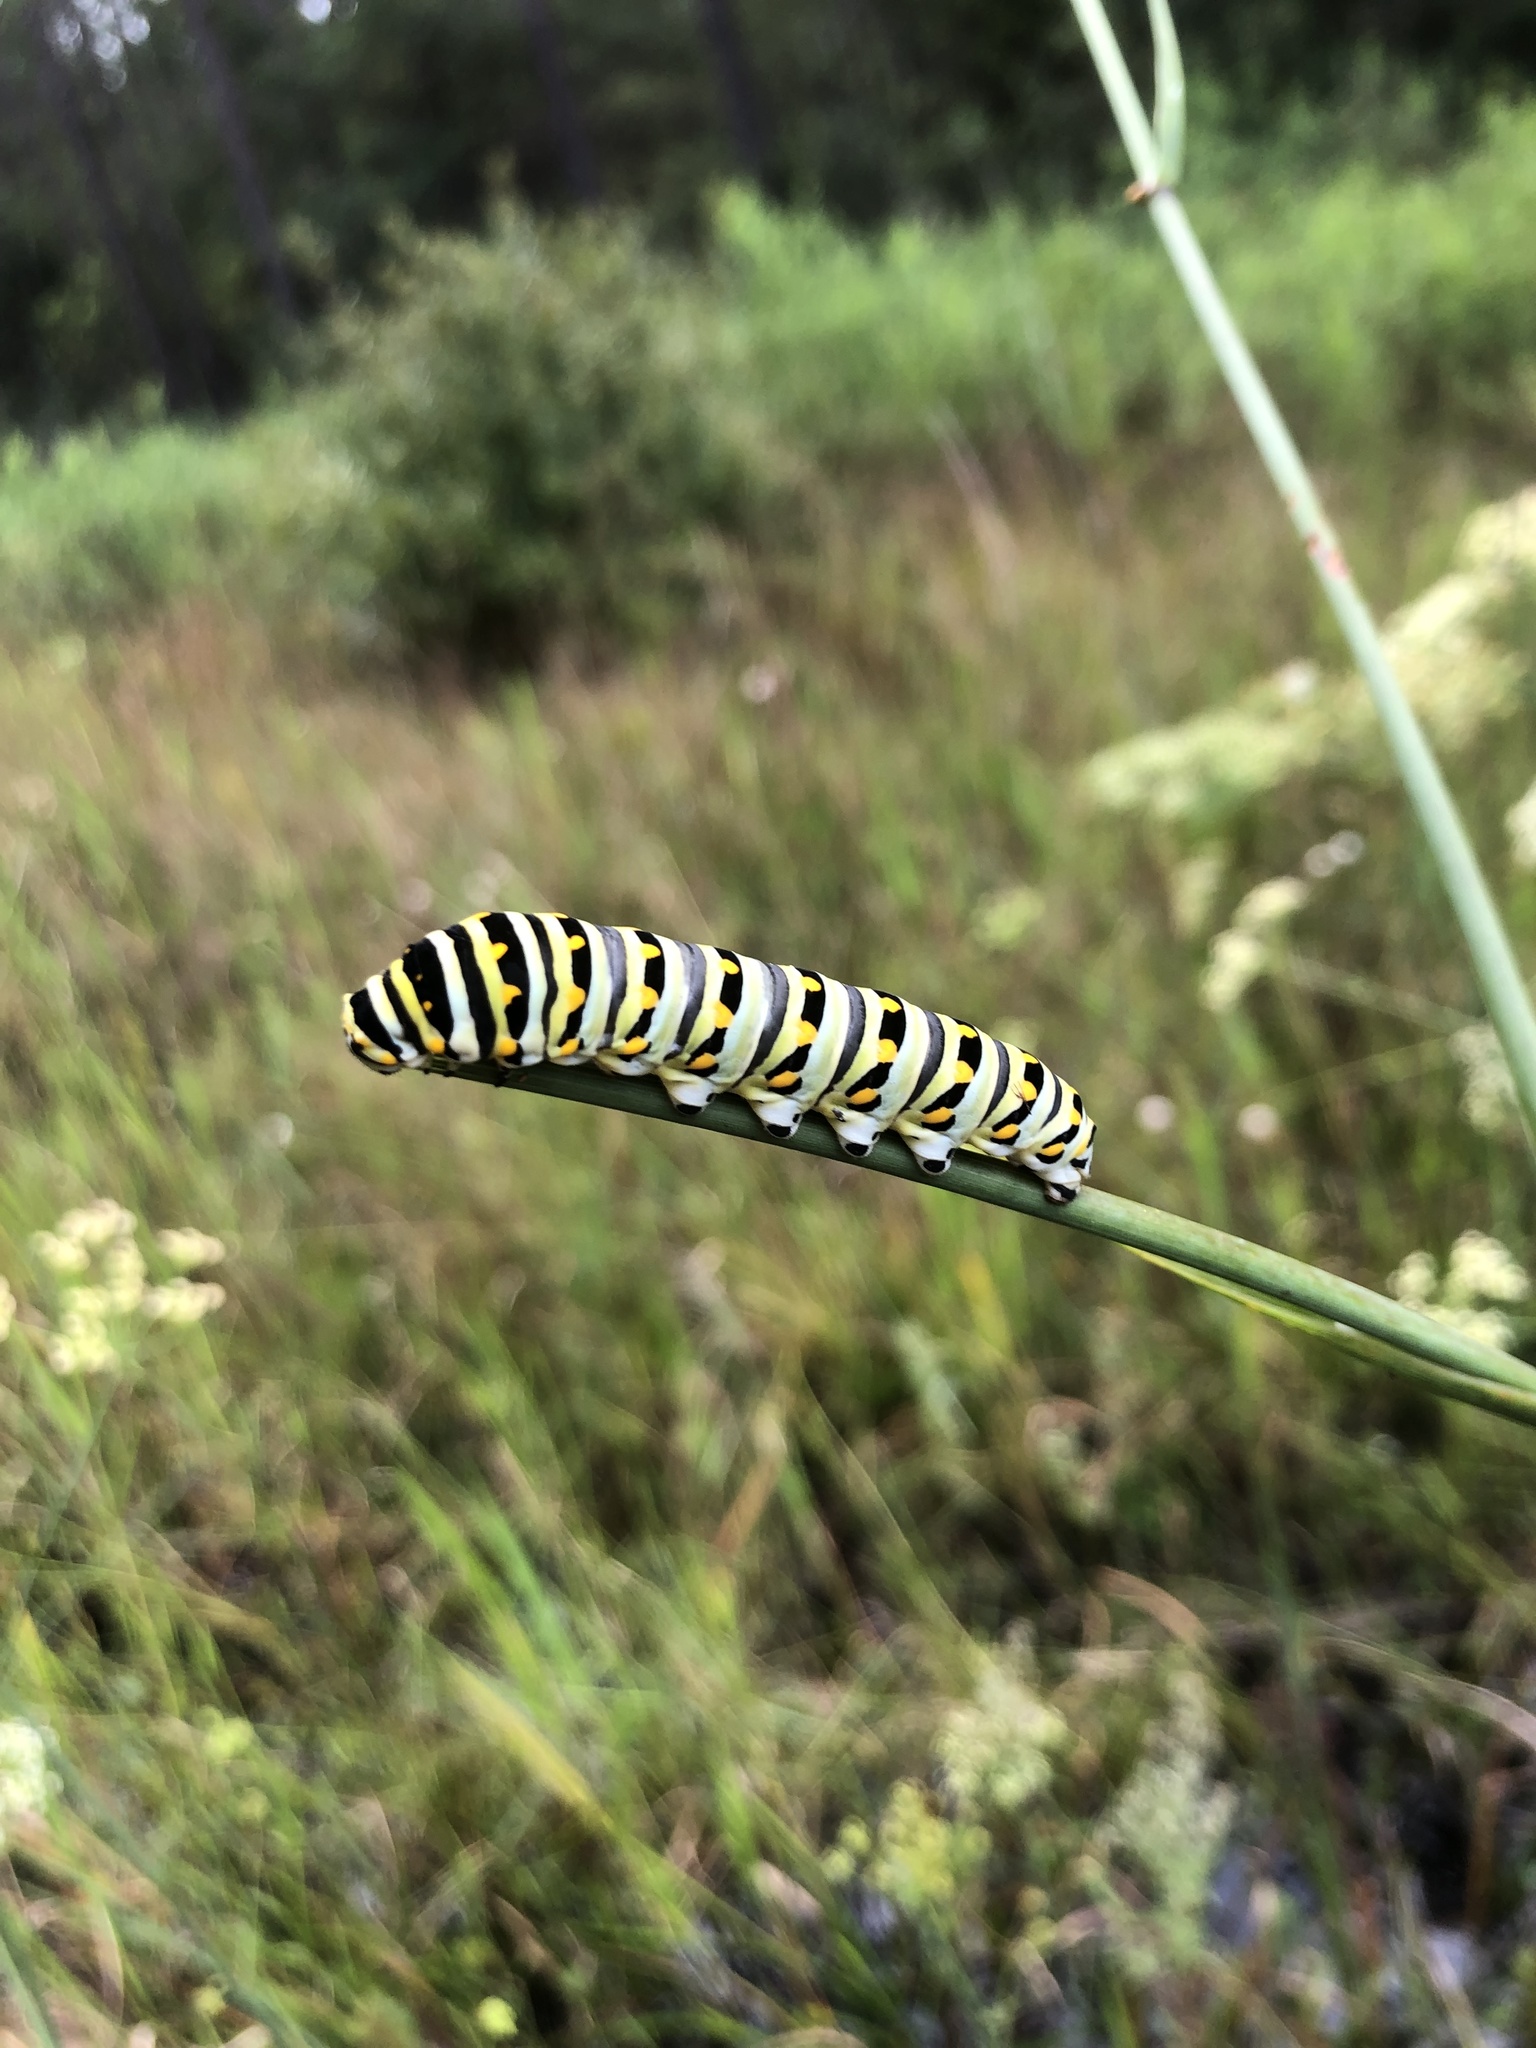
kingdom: Animalia
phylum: Arthropoda
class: Insecta
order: Lepidoptera
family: Papilionidae
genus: Papilio
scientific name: Papilio polyxenes
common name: Black swallowtail
